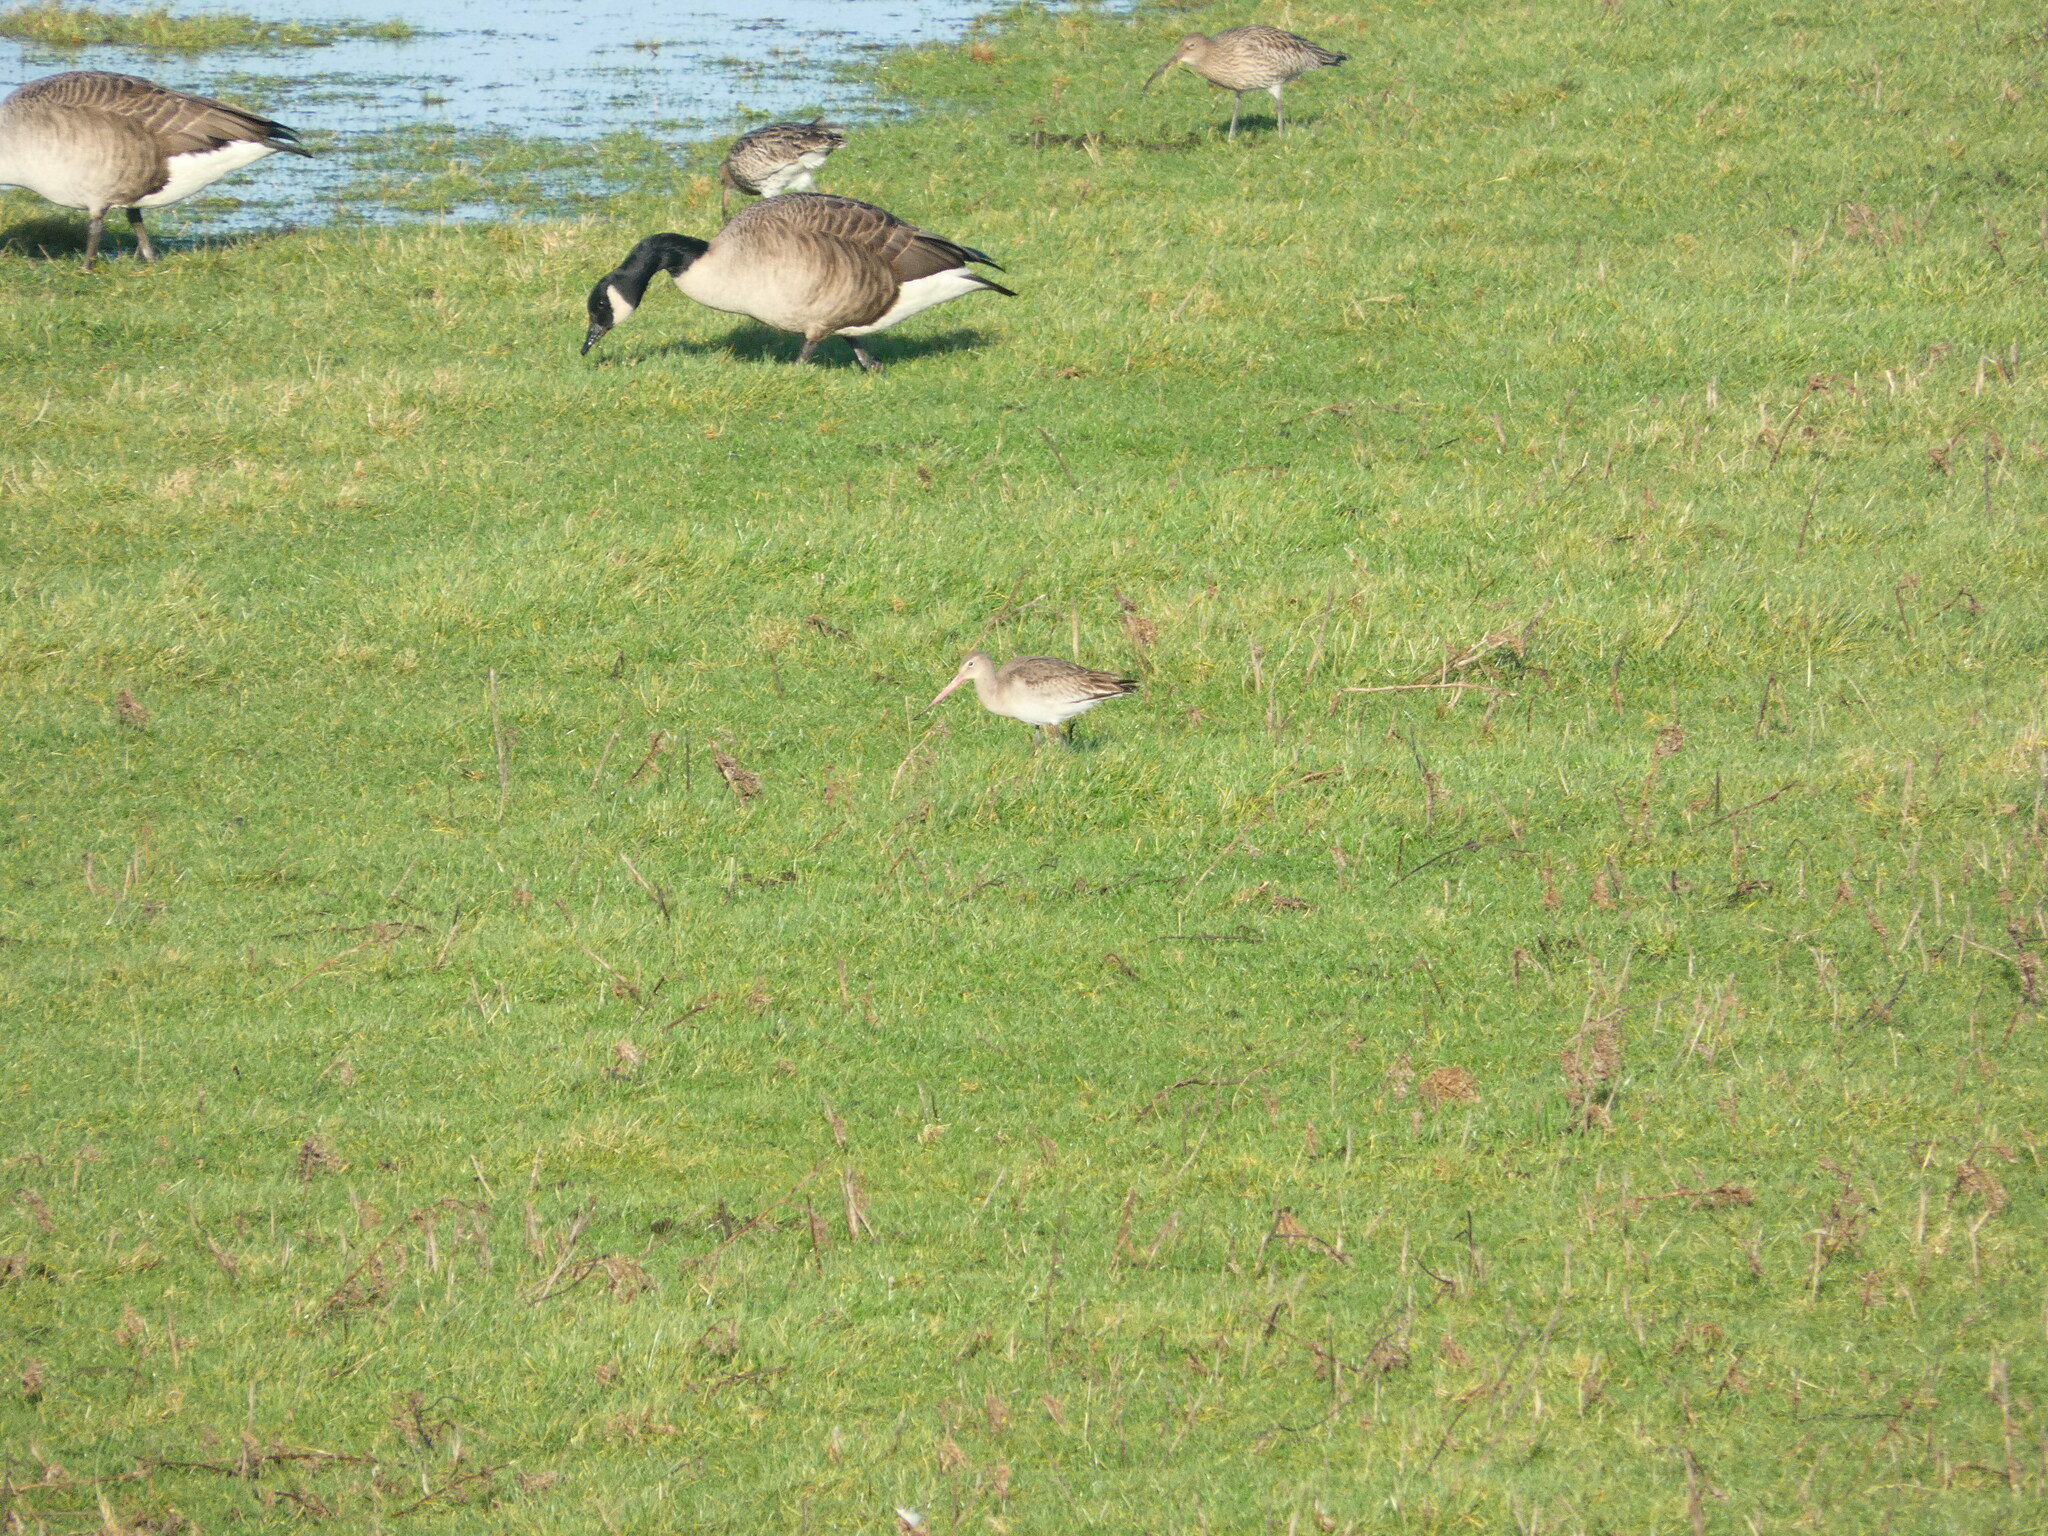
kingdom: Animalia
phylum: Chordata
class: Aves
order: Charadriiformes
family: Scolopacidae
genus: Limosa
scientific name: Limosa limosa
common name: Black-tailed godwit
